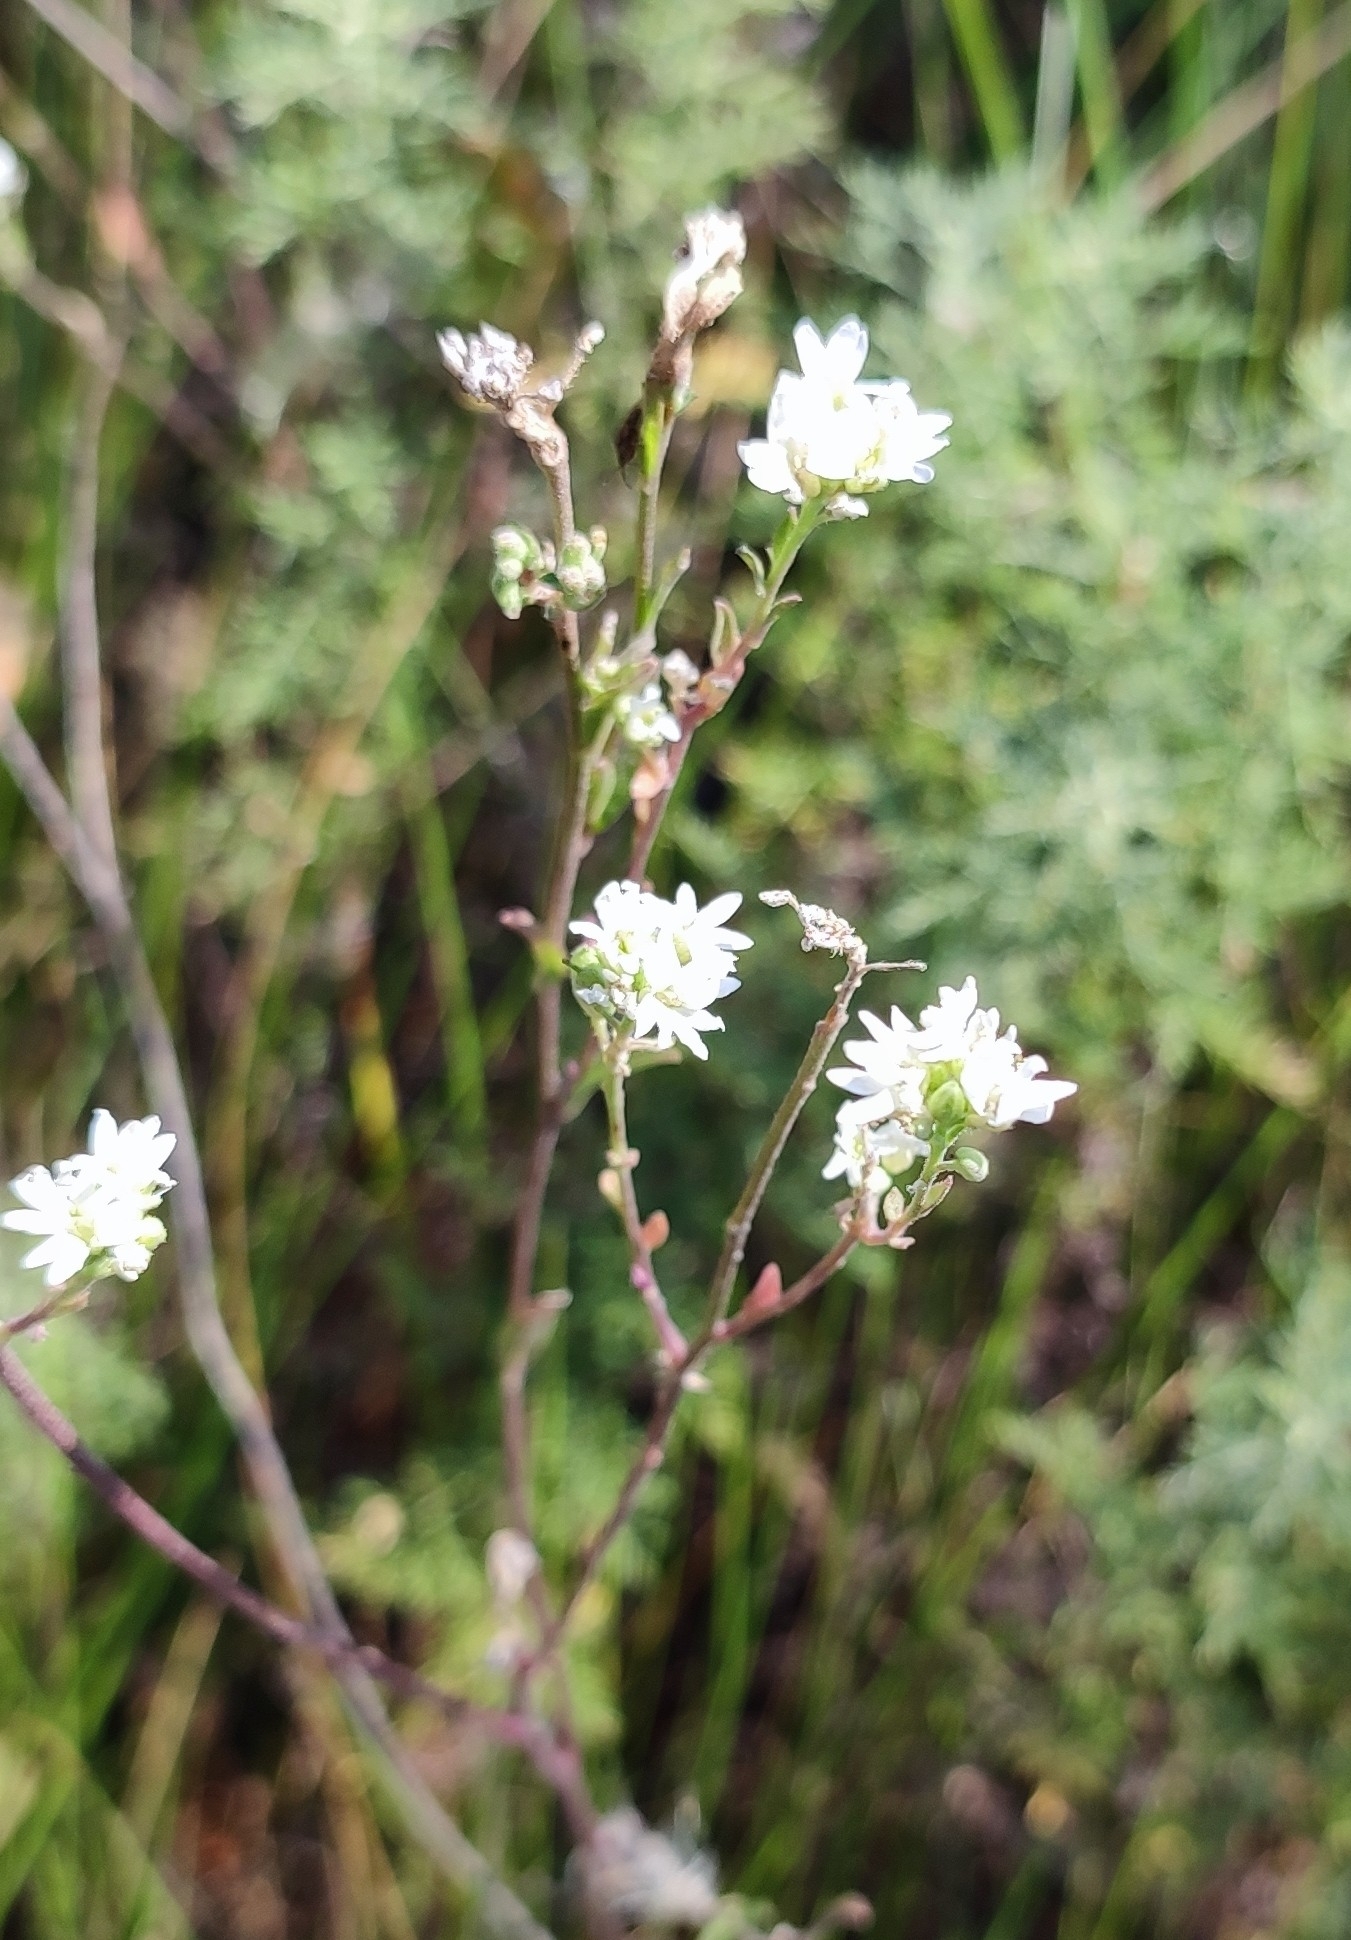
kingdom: Plantae
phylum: Tracheophyta
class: Magnoliopsida
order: Brassicales
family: Brassicaceae
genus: Berteroa
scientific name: Berteroa incana
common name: Hoary alison
